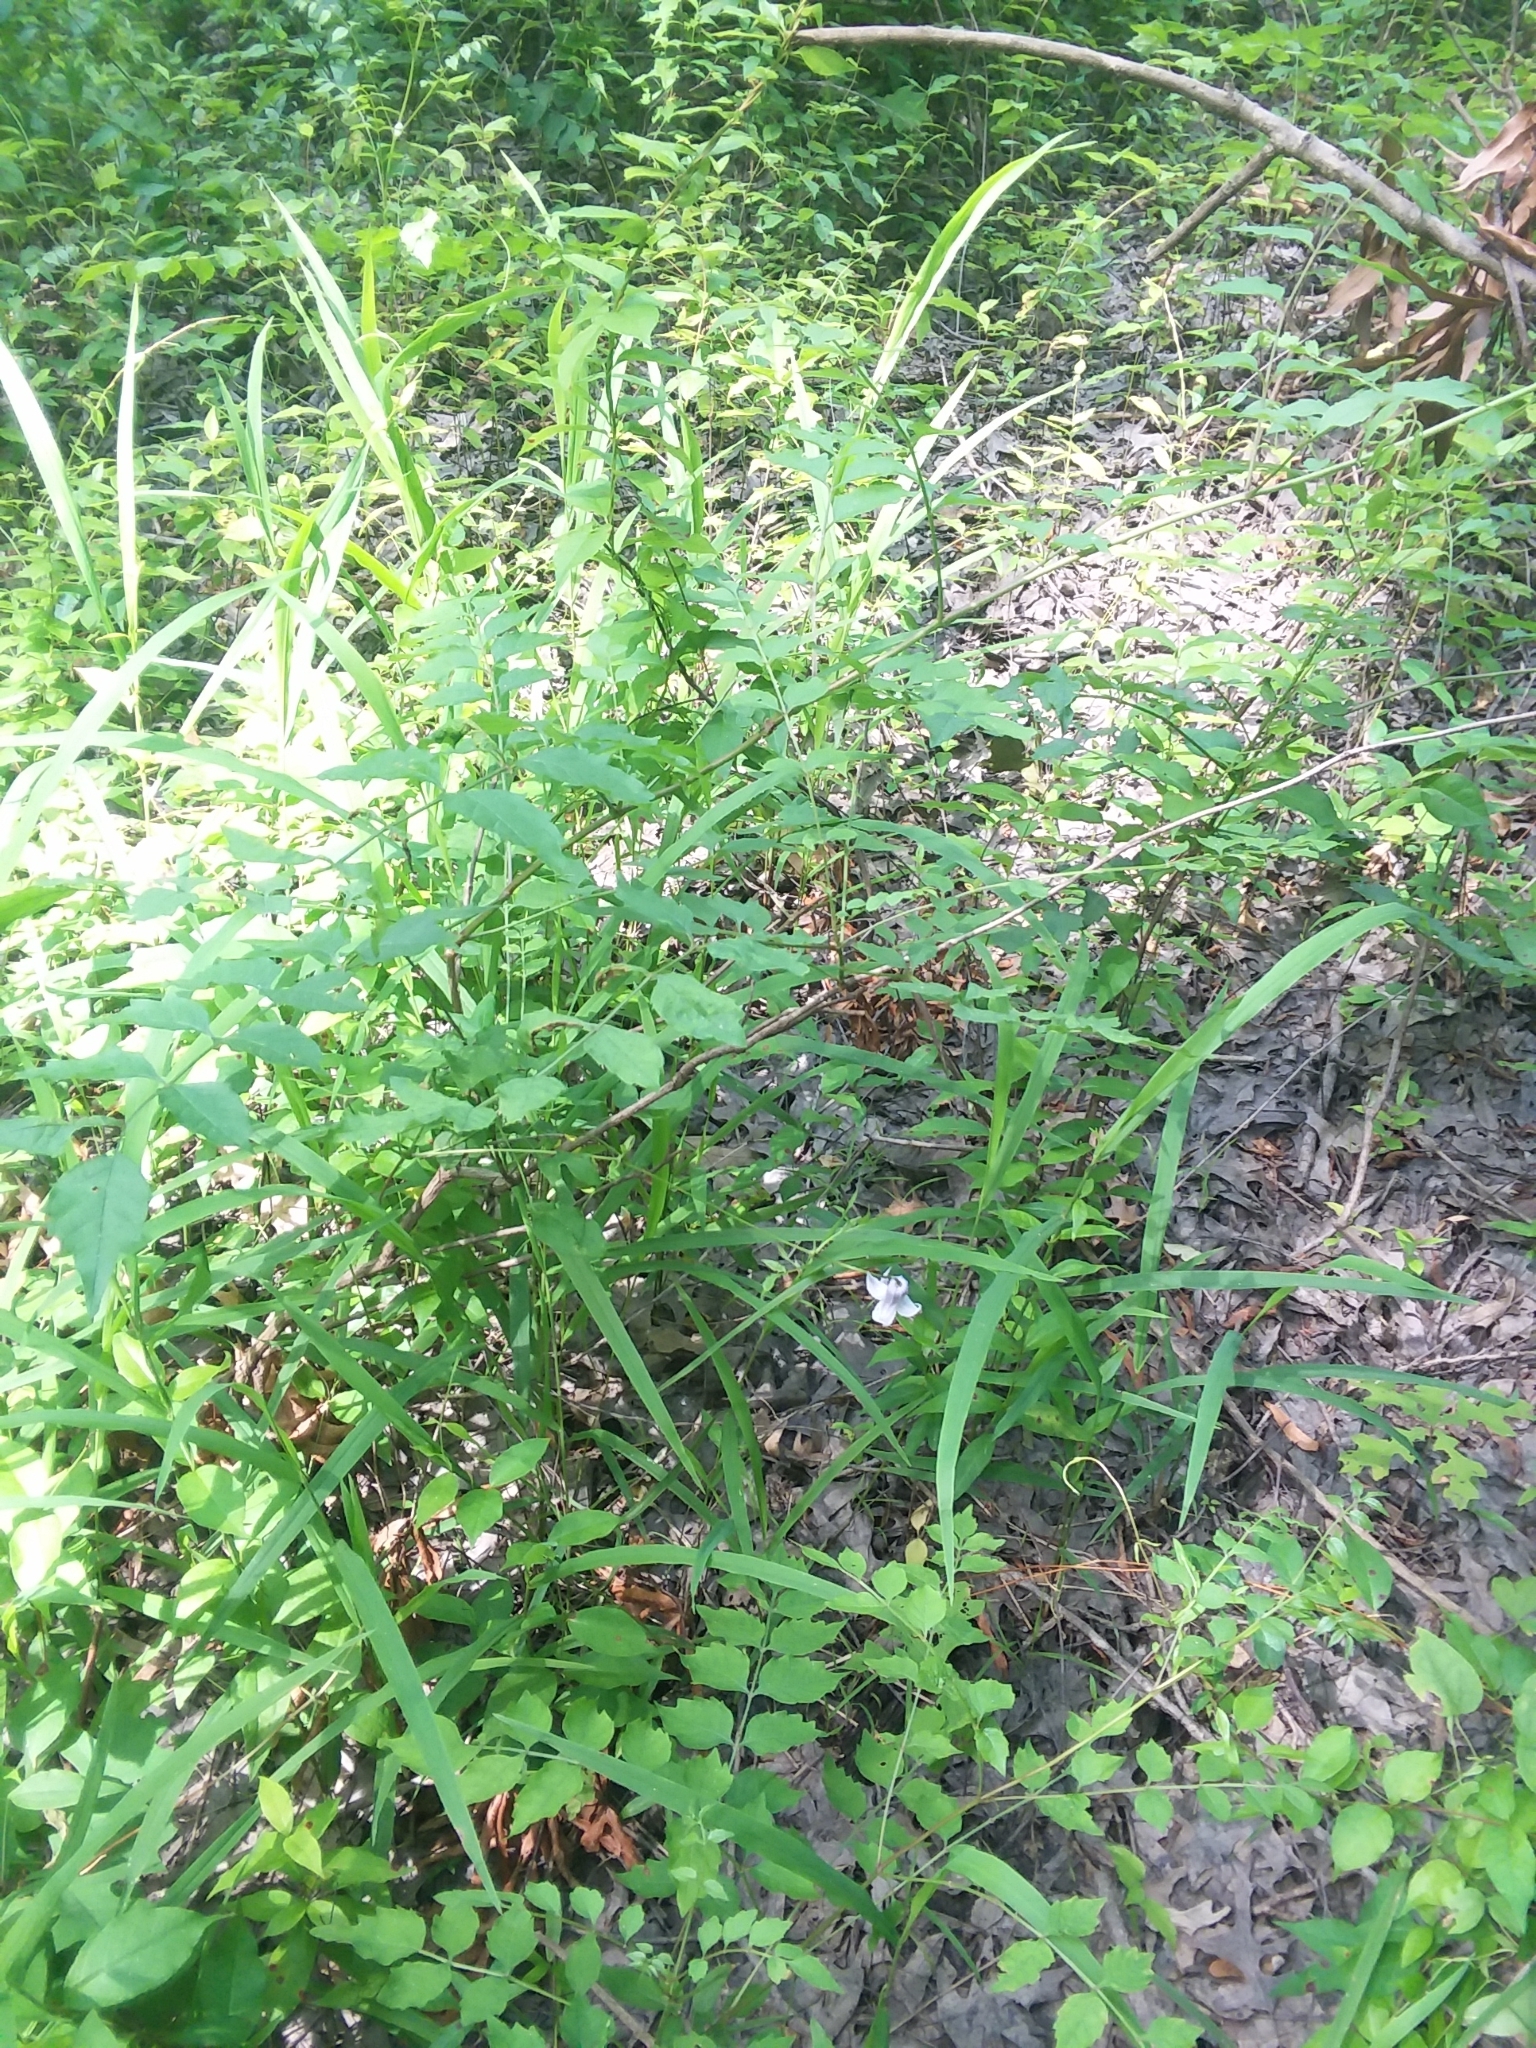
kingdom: Plantae
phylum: Tracheophyta
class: Magnoliopsida
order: Ranunculales
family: Ranunculaceae
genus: Clematis
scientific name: Clematis crispa
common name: Curly clematis
